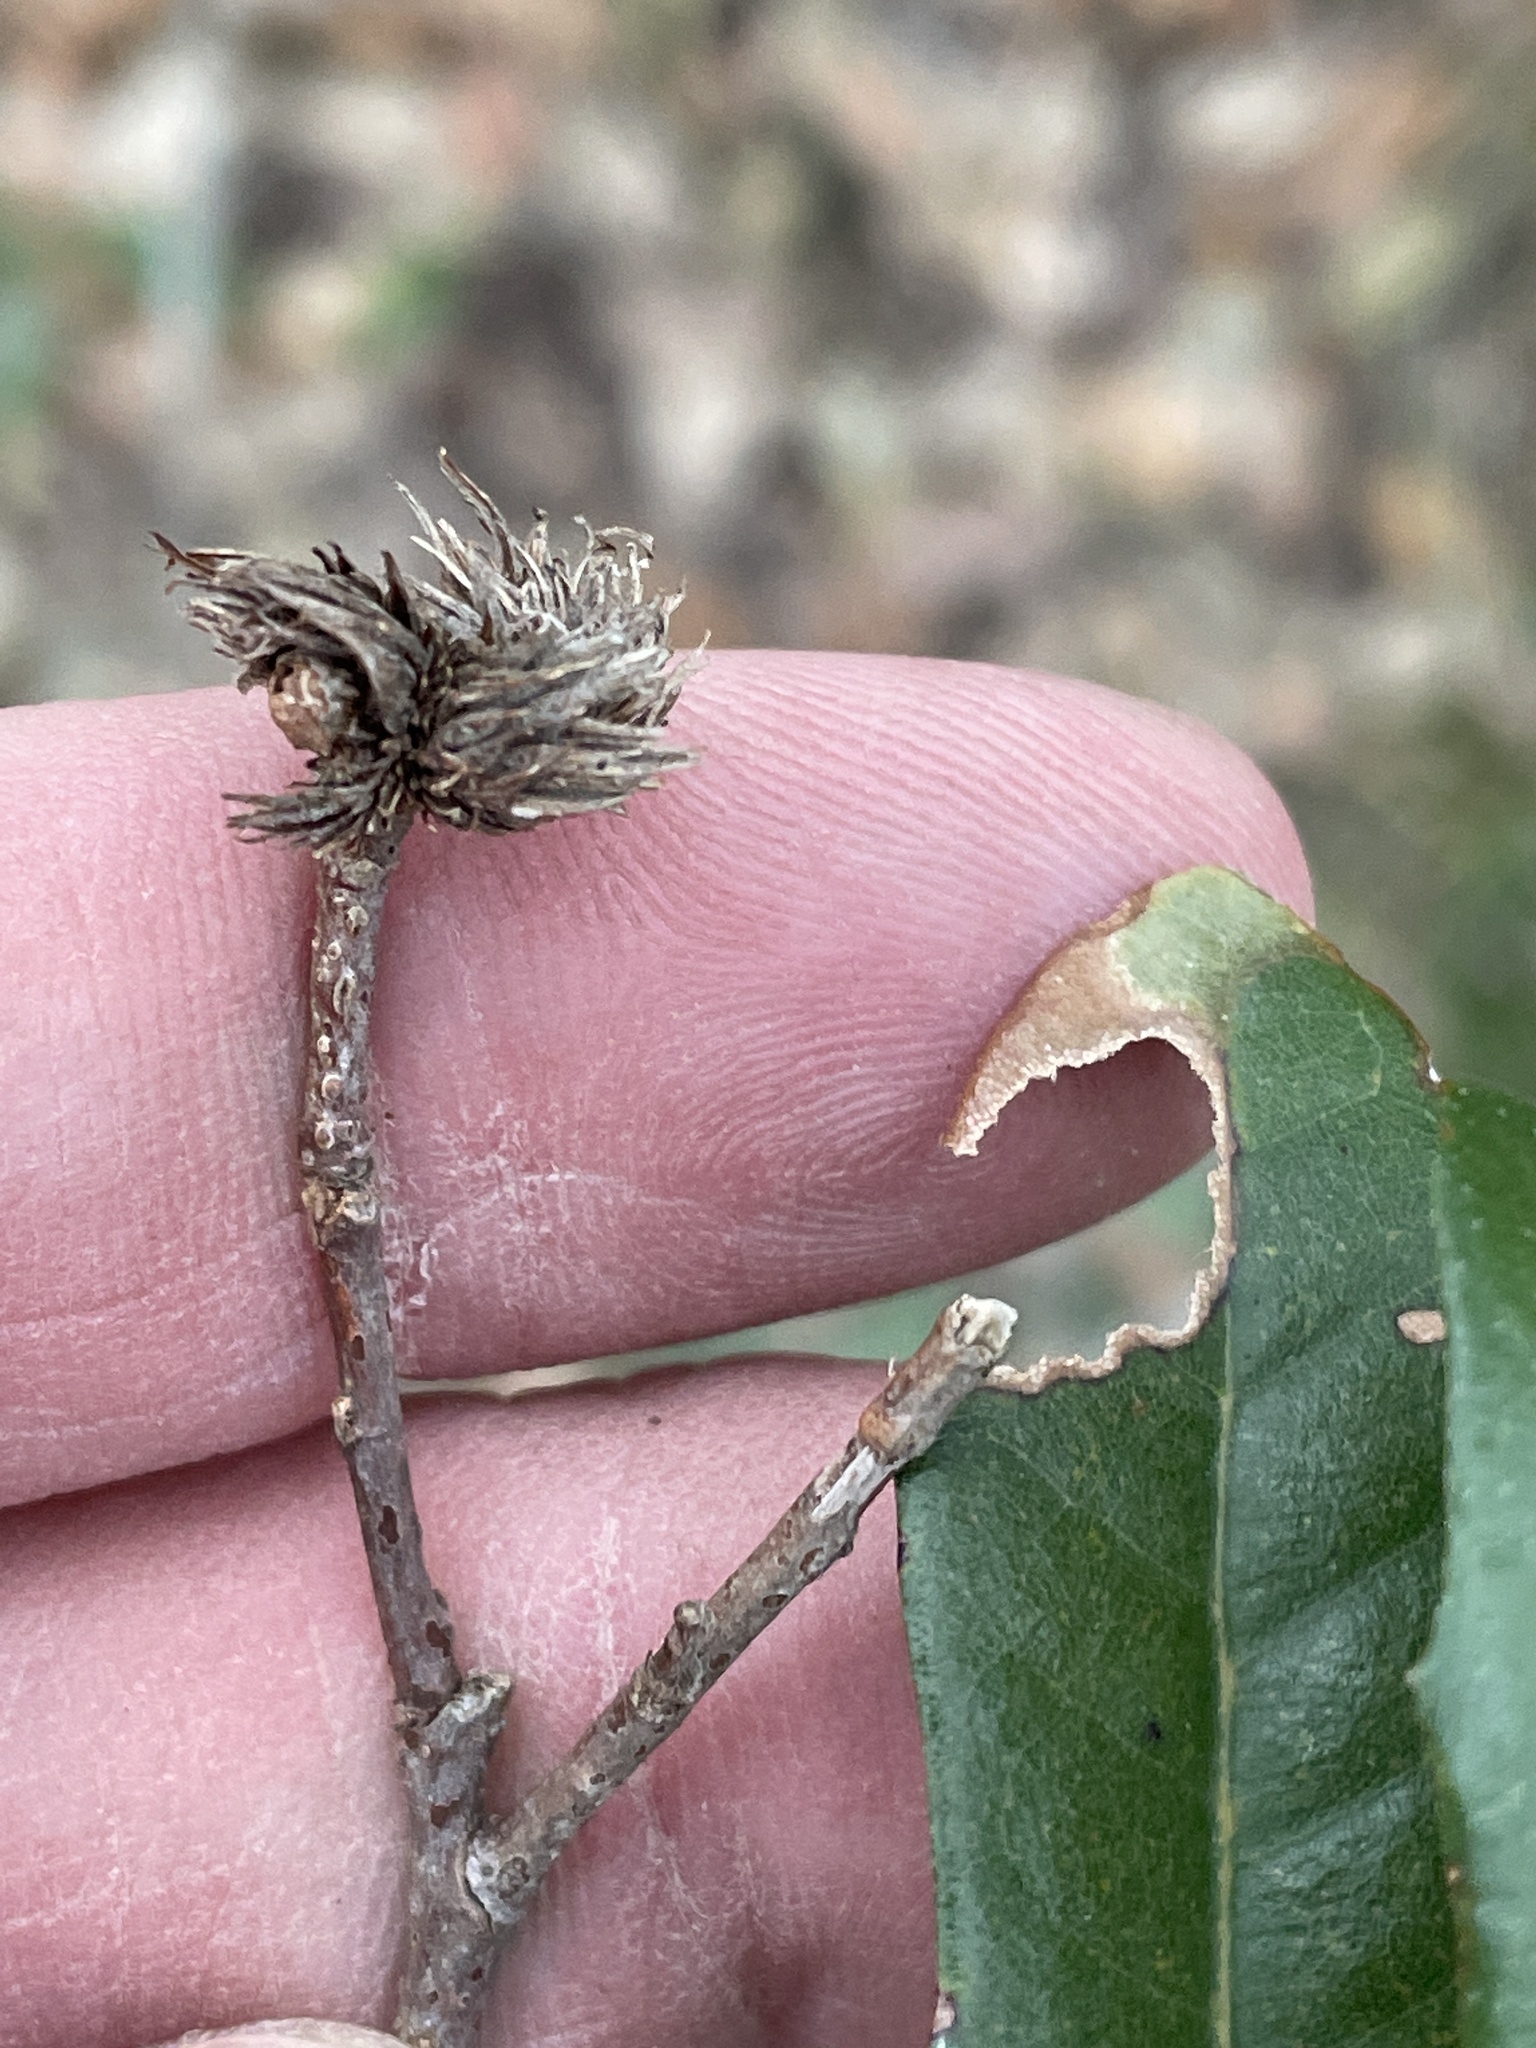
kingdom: Animalia
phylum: Arthropoda
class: Insecta
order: Hymenoptera
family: Cynipidae
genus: Andricus
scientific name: Andricus quercusfoliatus
